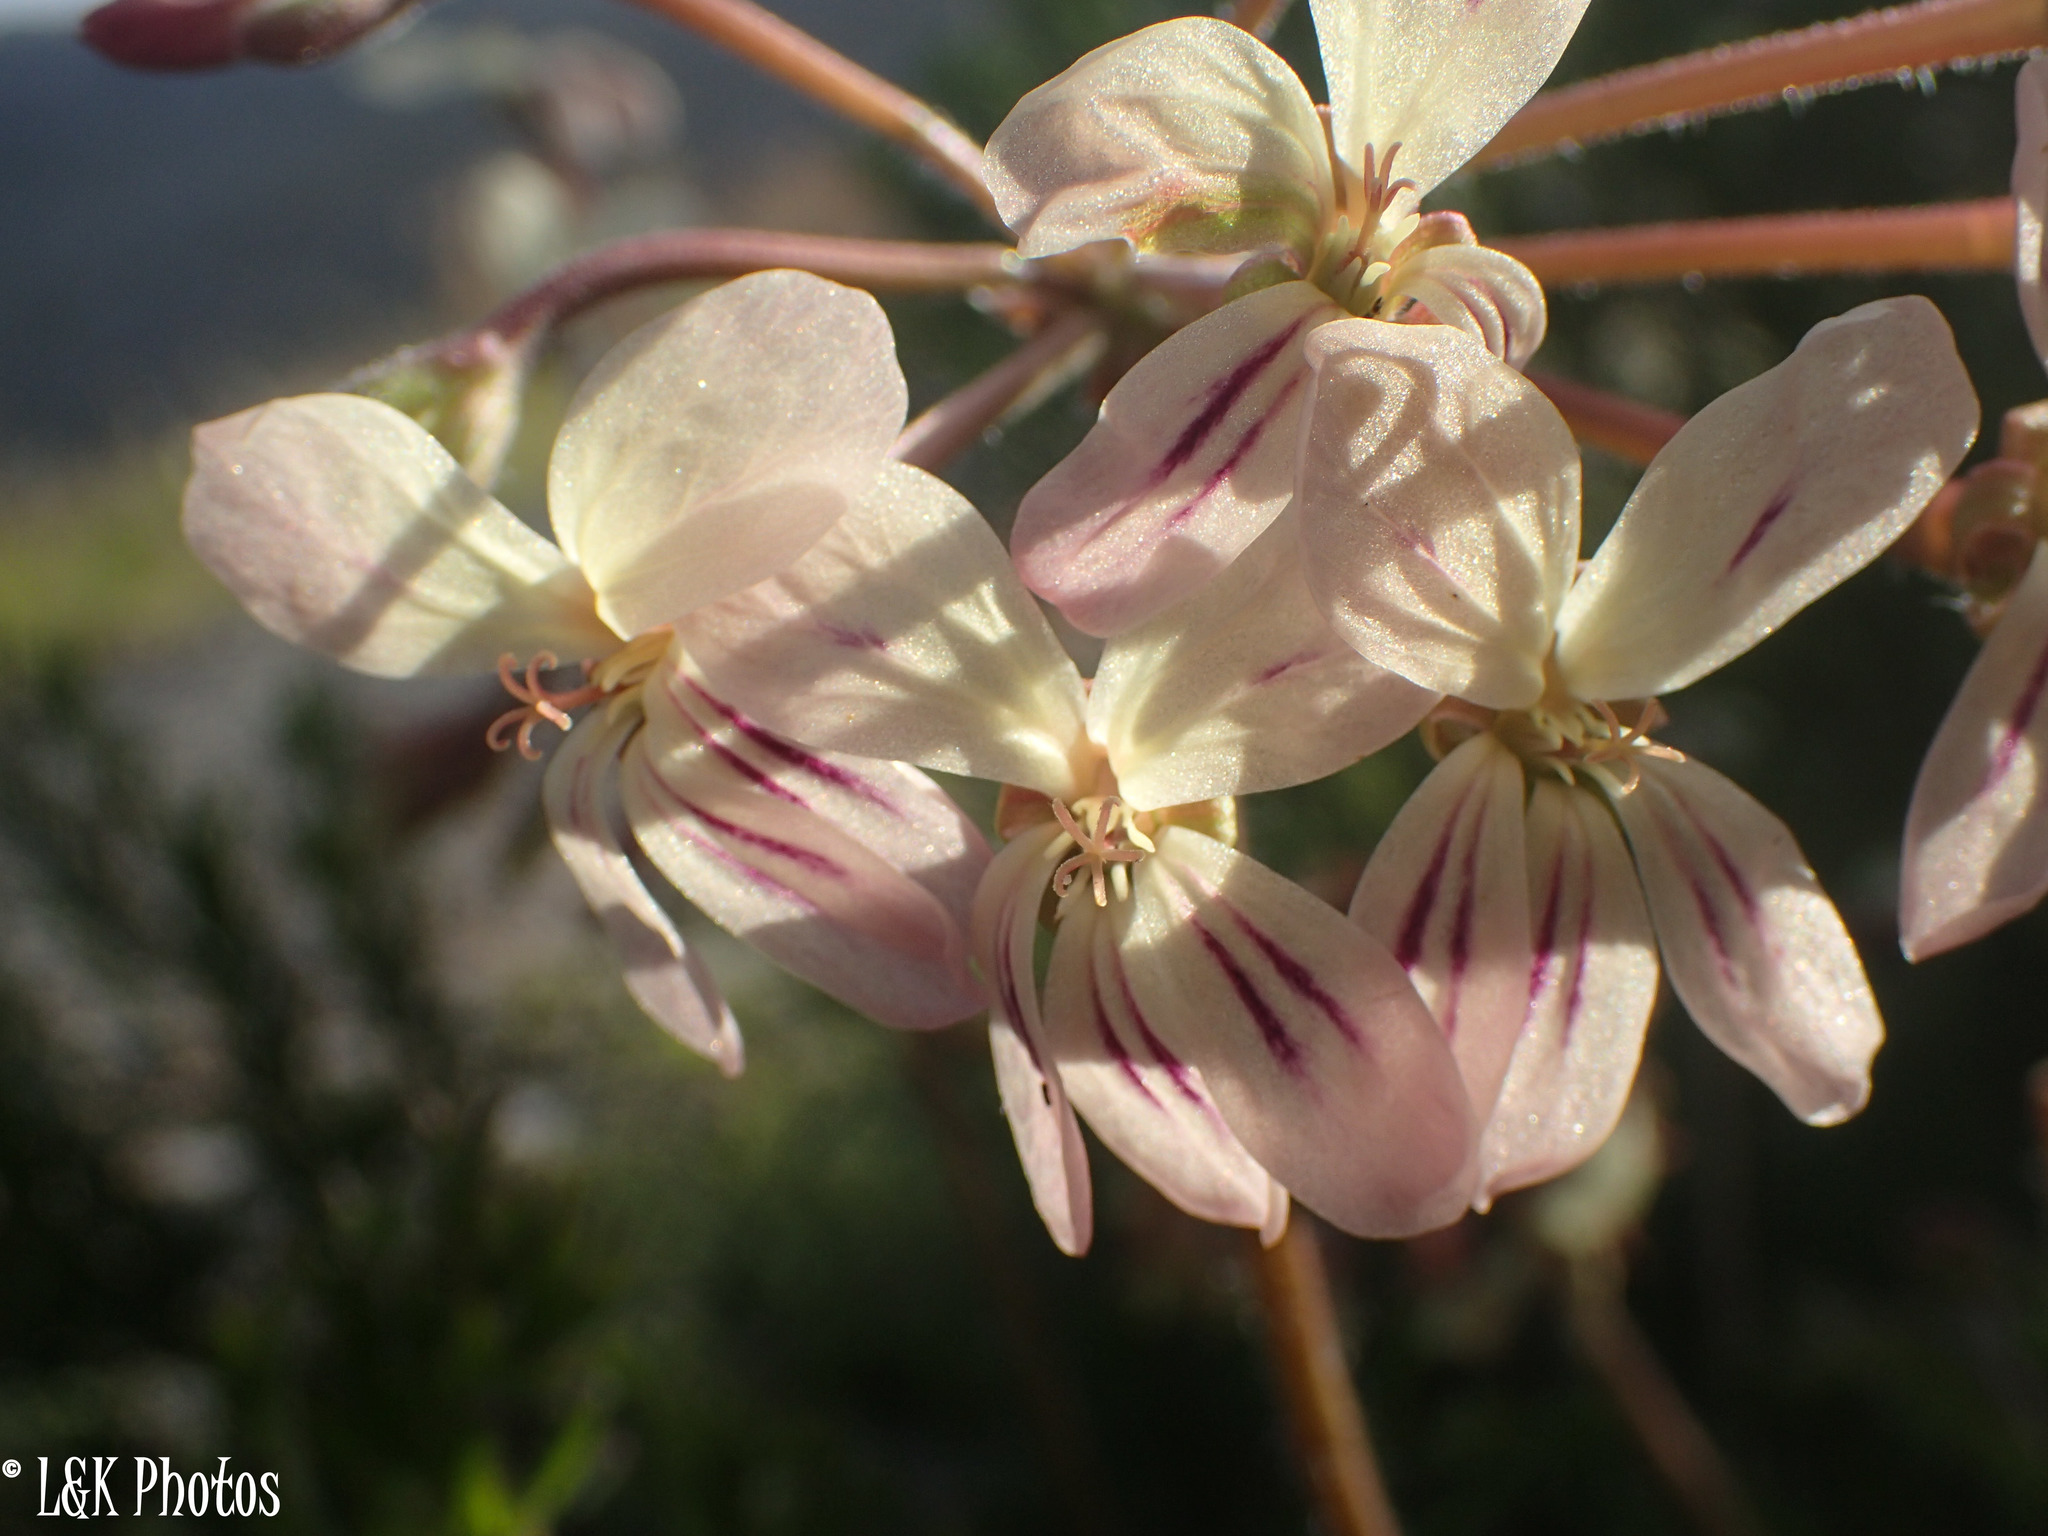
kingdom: Plantae
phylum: Tracheophyta
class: Magnoliopsida
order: Geraniales
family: Geraniaceae
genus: Pelargonium
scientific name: Pelargonium triste
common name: Night-scent pelargonium
